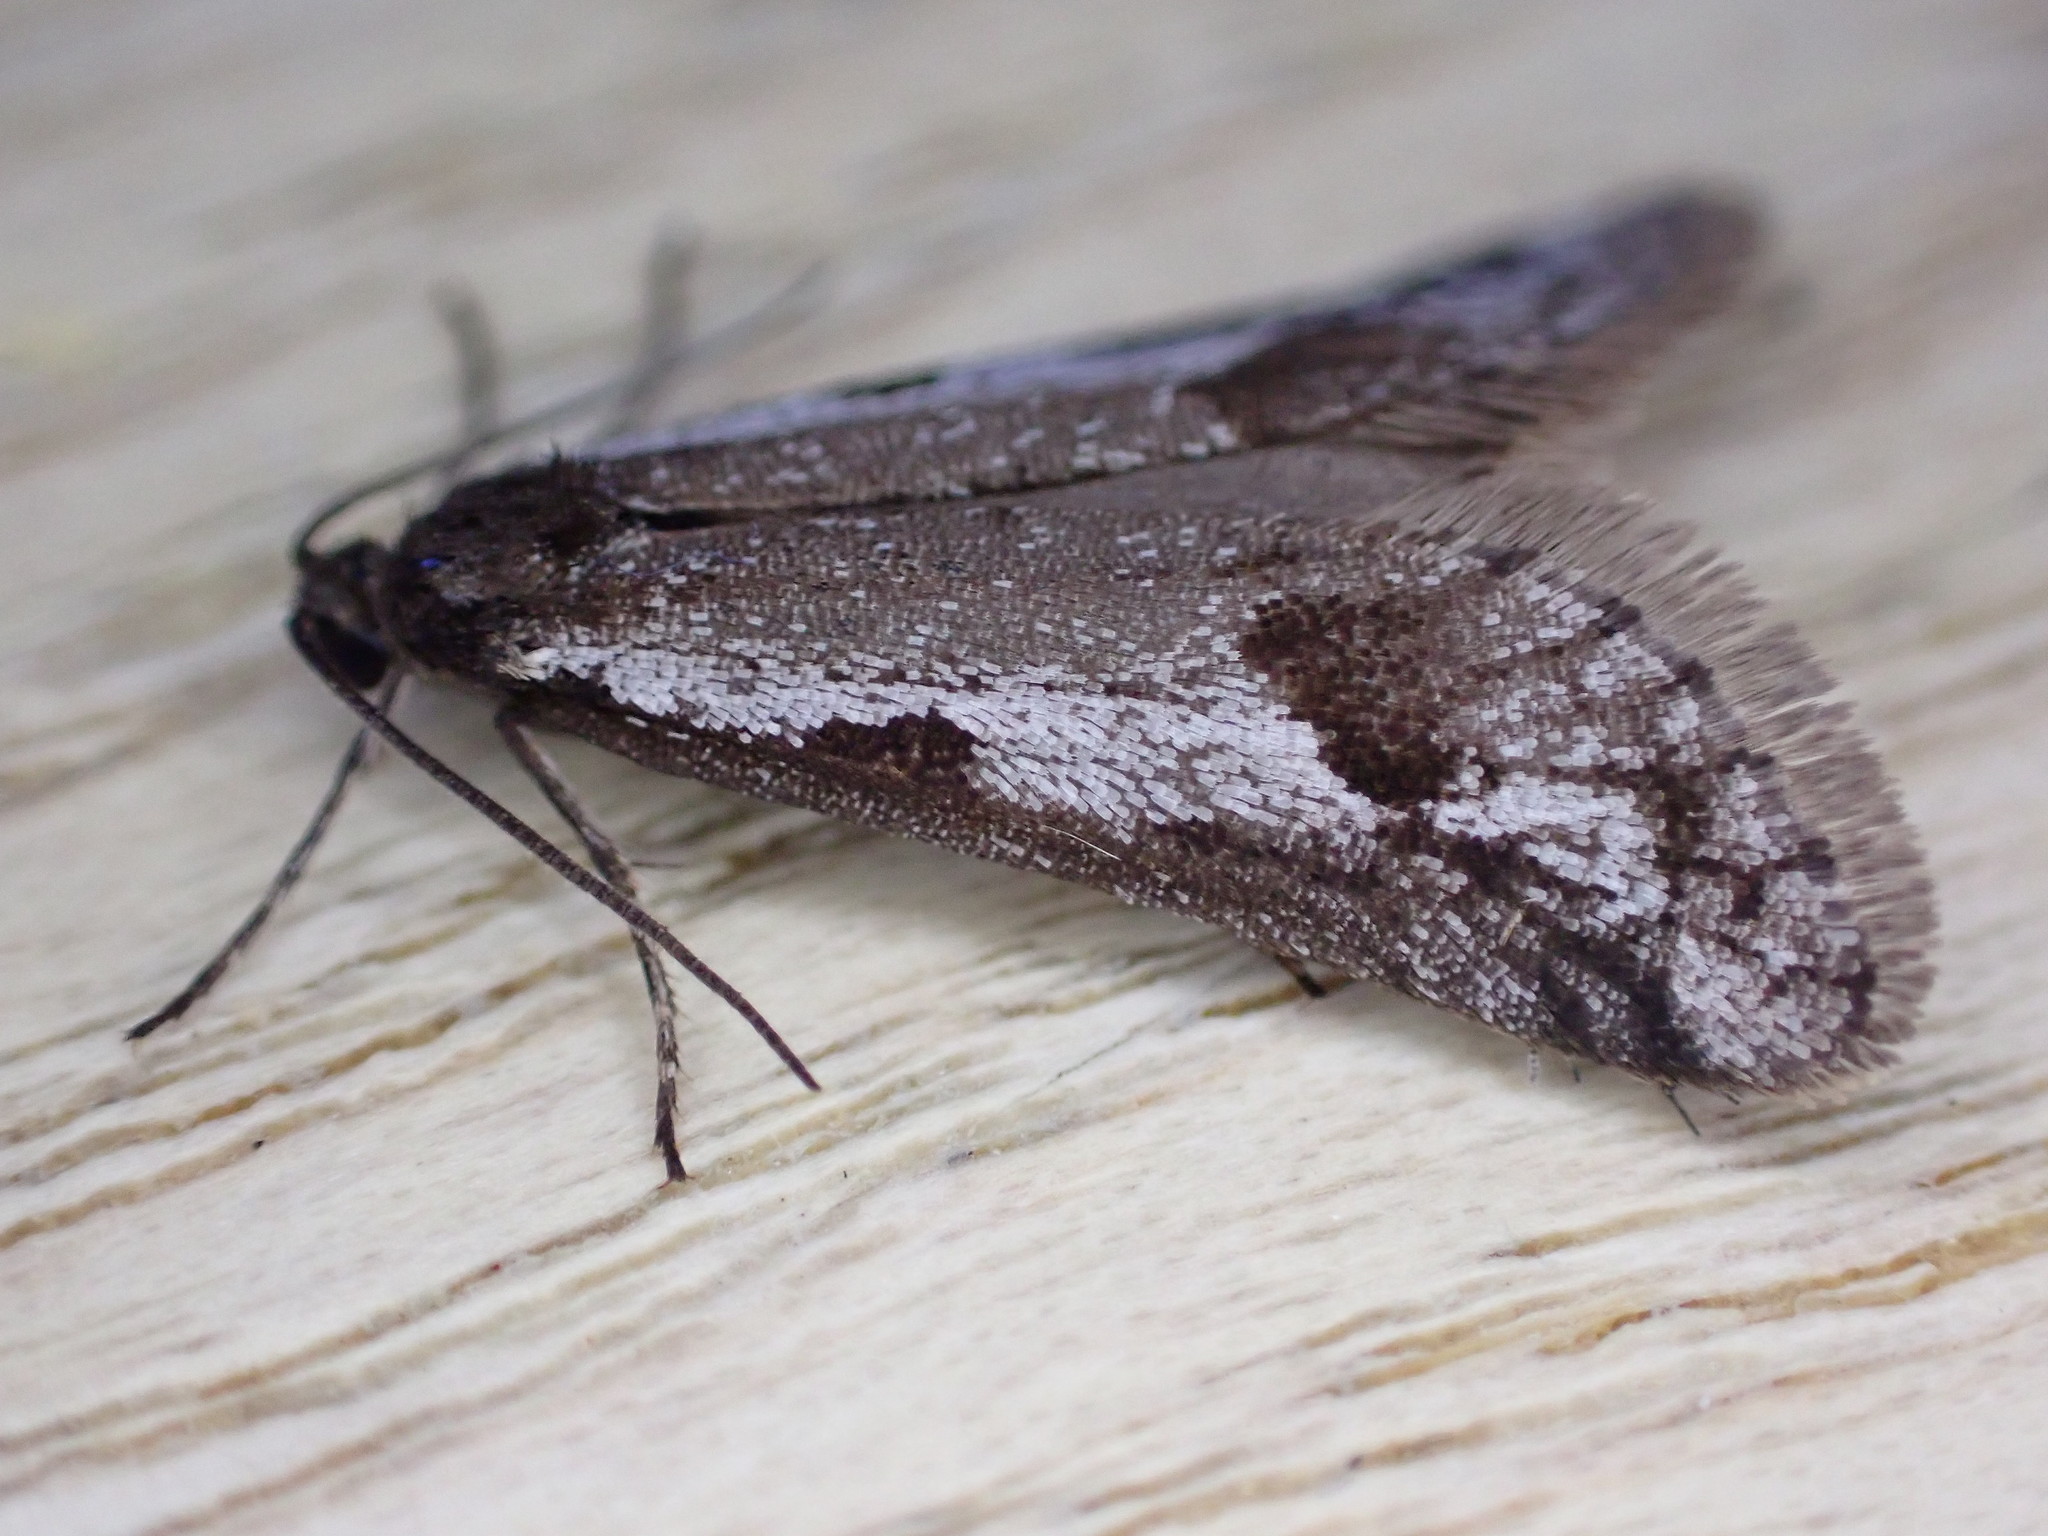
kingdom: Animalia
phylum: Arthropoda
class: Insecta
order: Lepidoptera
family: Tortricidae
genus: Exapate
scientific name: Exapate congelatella
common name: Autumnal shade
